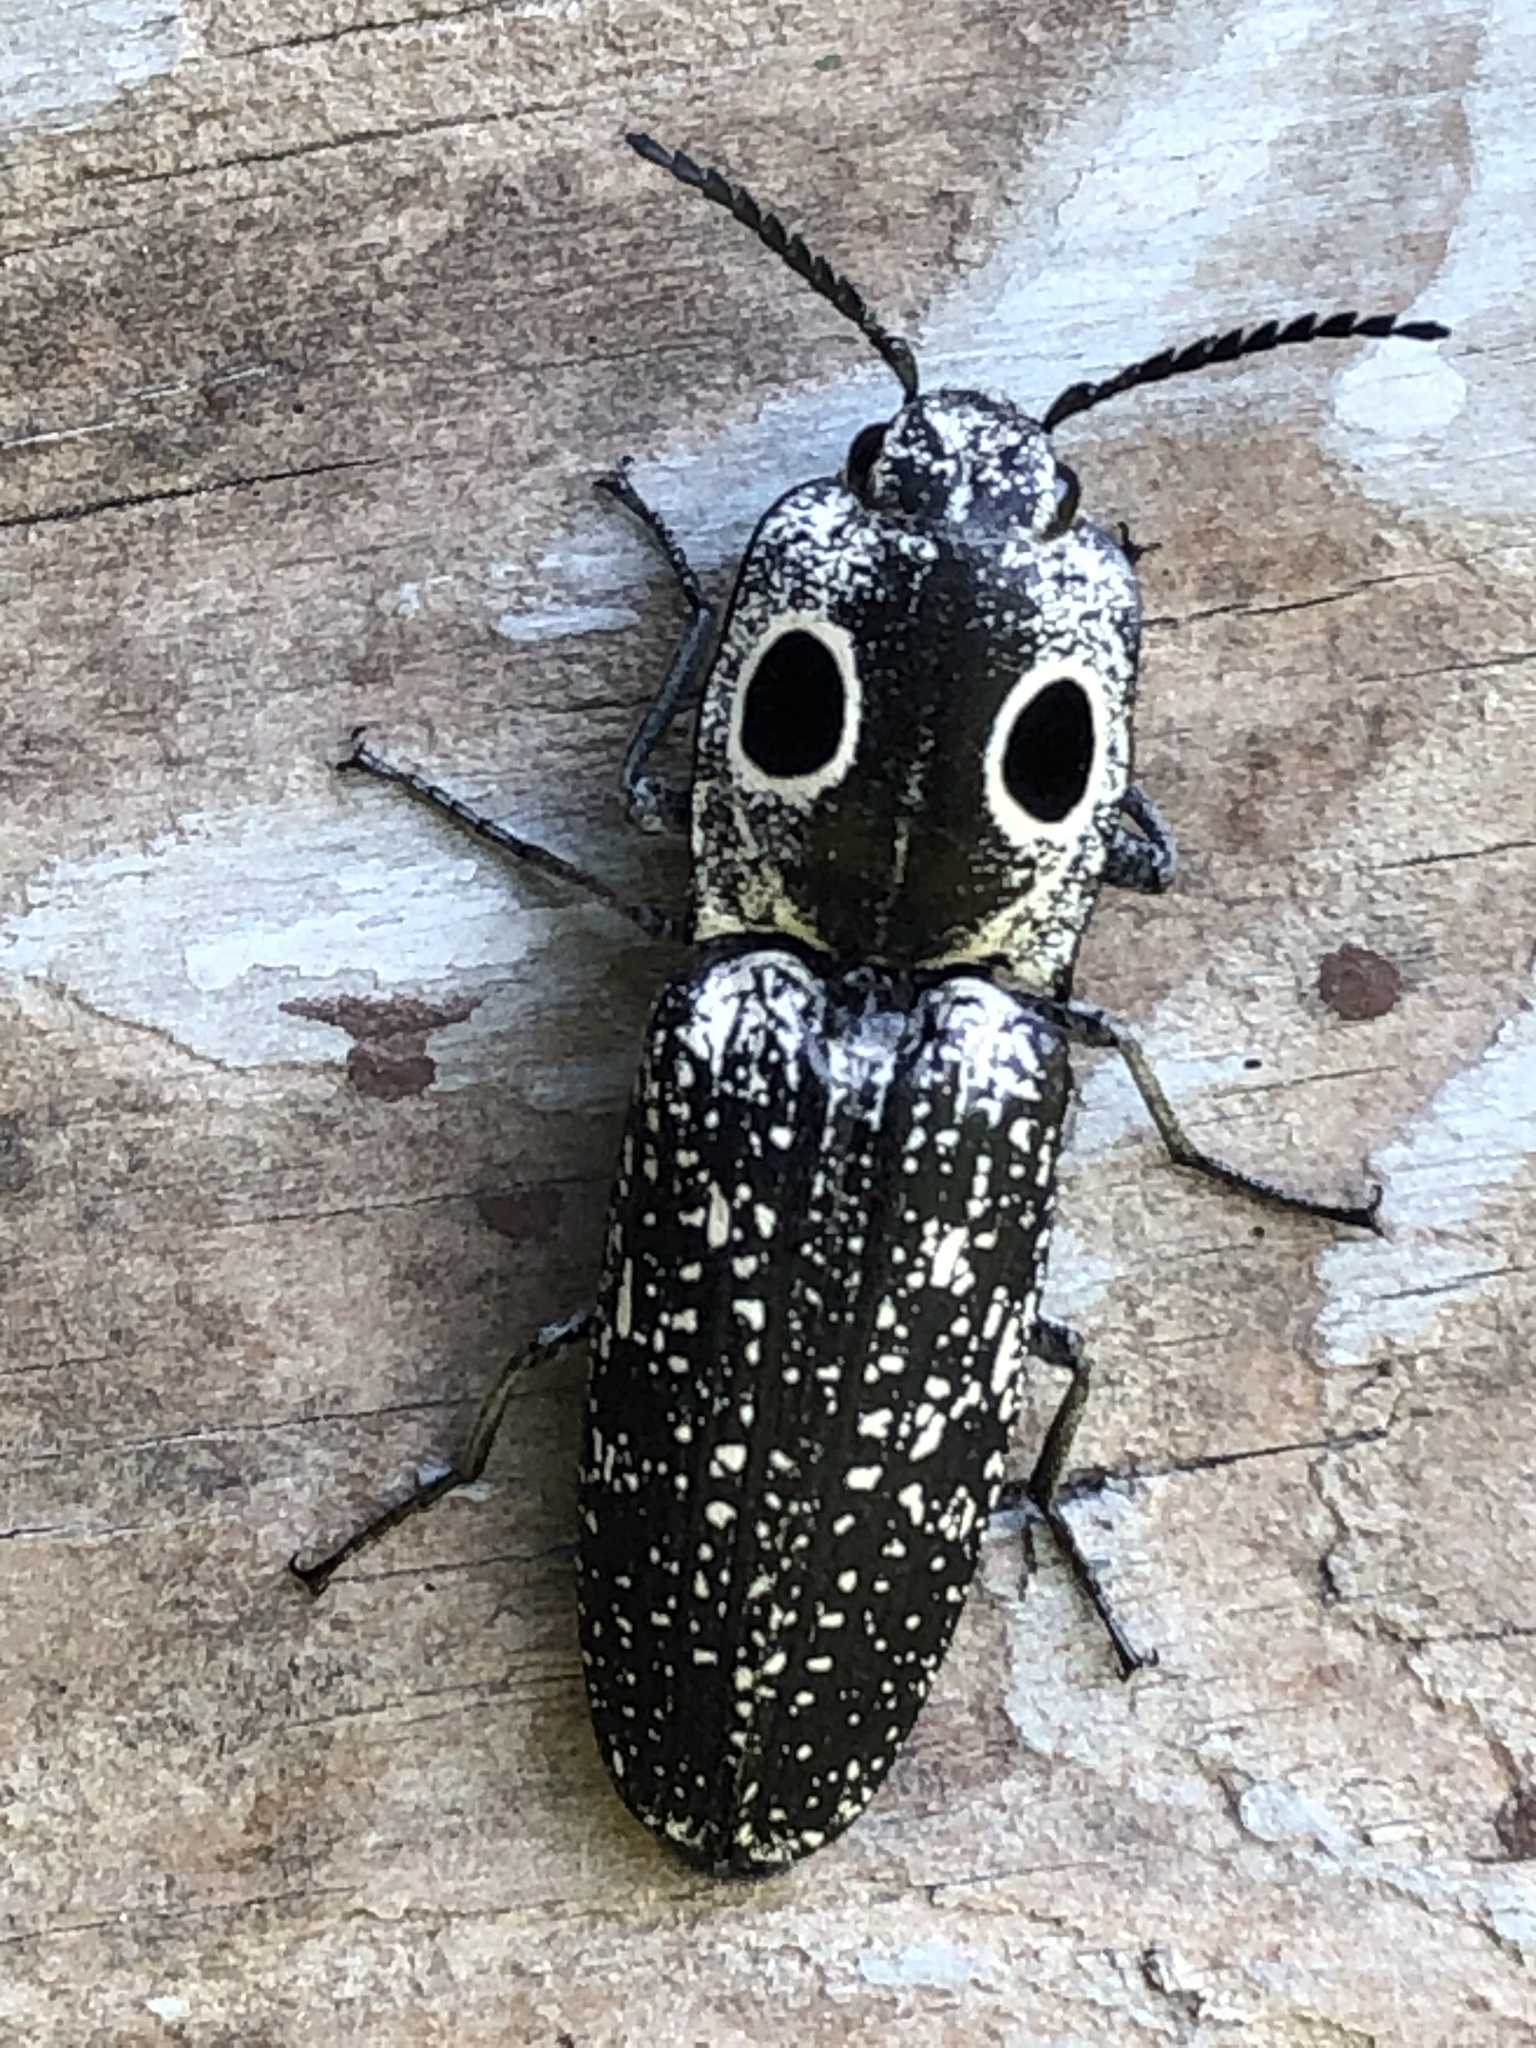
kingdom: Animalia
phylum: Arthropoda
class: Insecta
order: Coleoptera
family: Elateridae
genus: Alaus
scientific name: Alaus oculatus
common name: Eastern eyed click beetle
